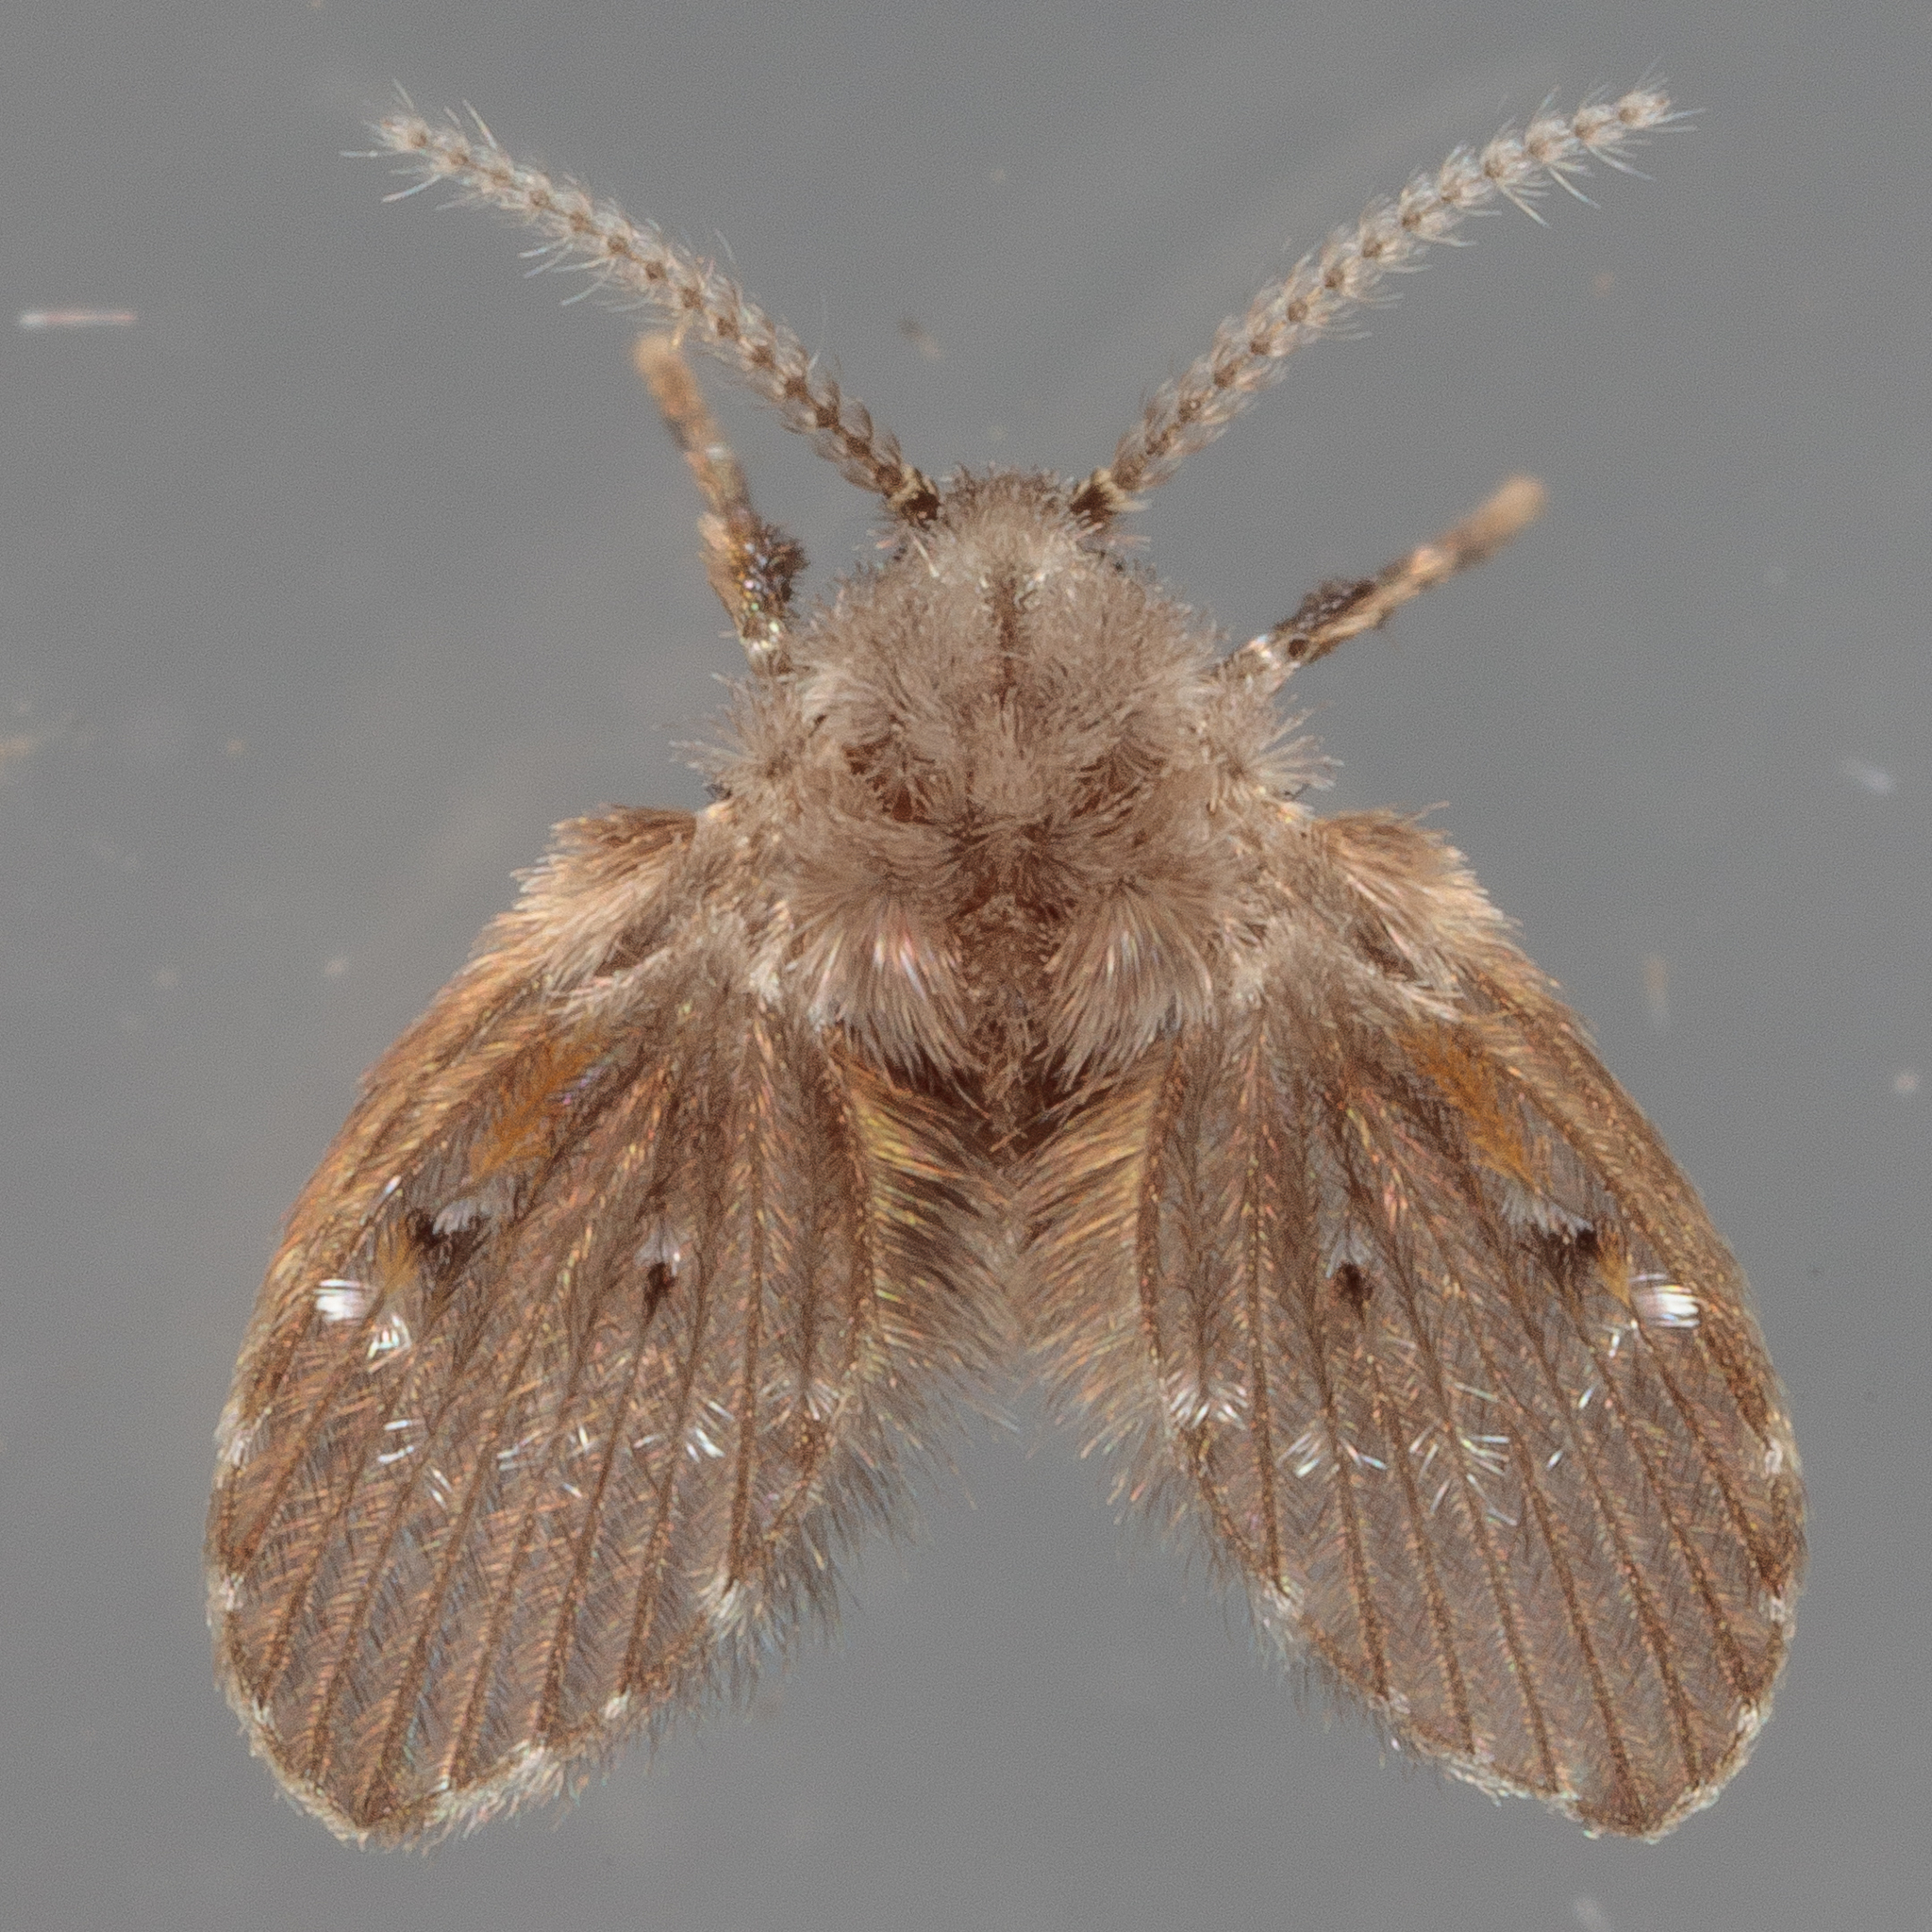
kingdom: Animalia
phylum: Arthropoda
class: Insecta
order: Diptera
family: Psychodidae
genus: Clogmia
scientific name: Clogmia albipunctatus
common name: White-spotted moth fly
